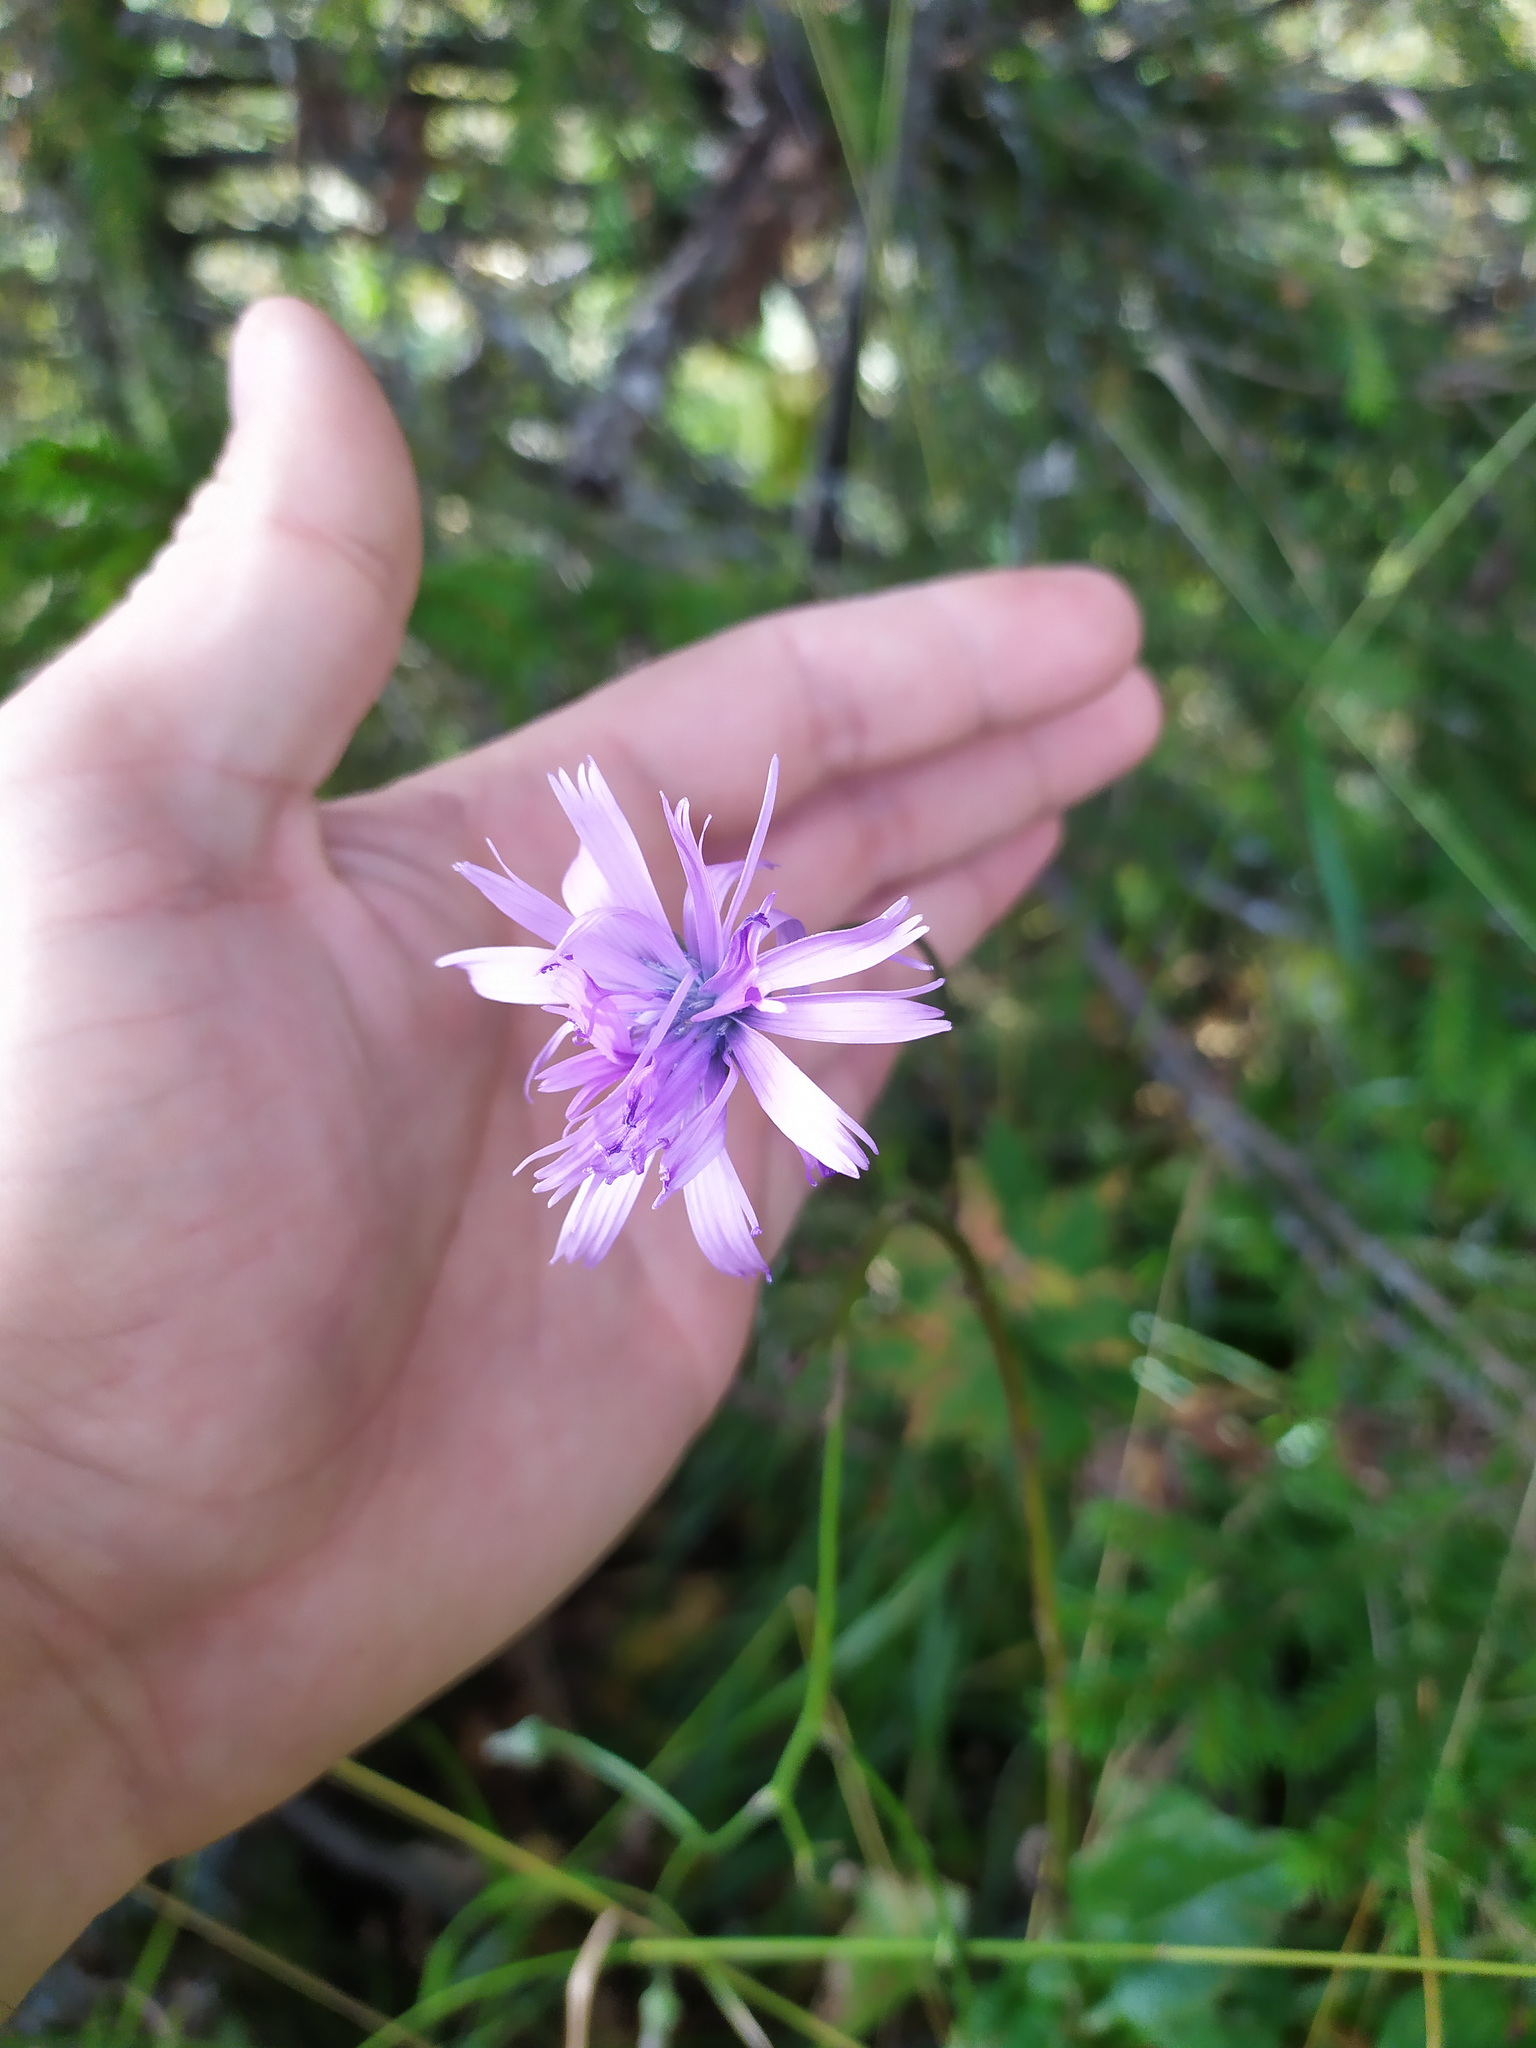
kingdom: Plantae
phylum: Tracheophyta
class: Magnoliopsida
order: Asterales
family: Asteraceae
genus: Lactuca
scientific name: Lactuca macrophylla
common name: Common blue-sow-thistle
